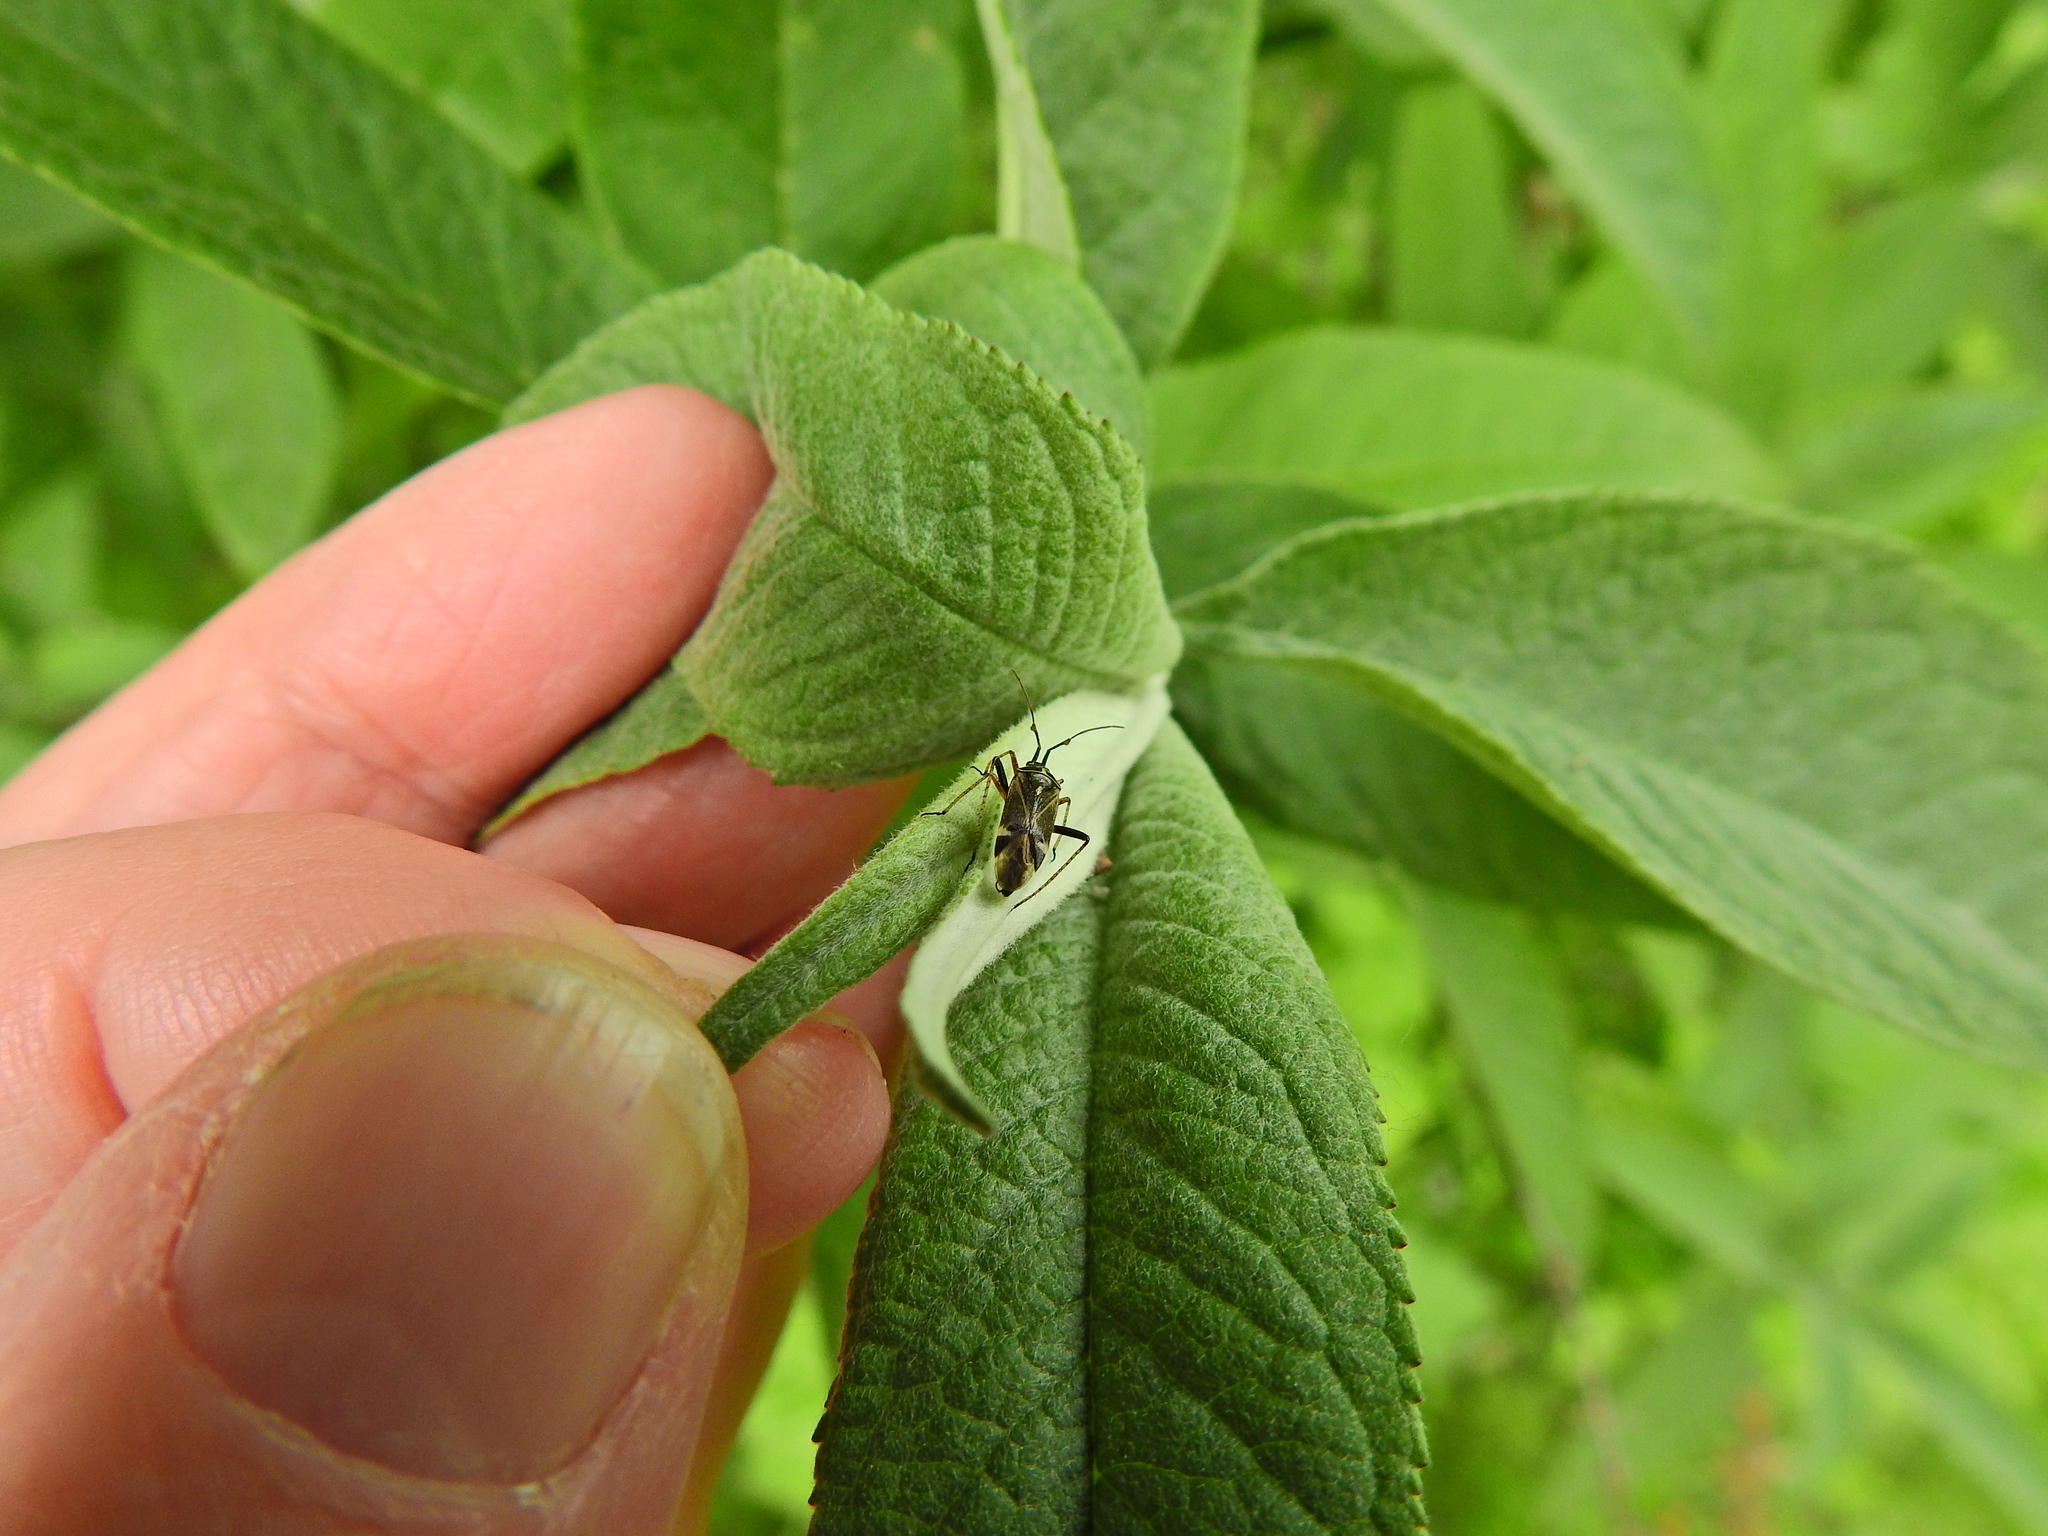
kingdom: Animalia
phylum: Arthropoda
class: Insecta
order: Hemiptera
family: Miridae
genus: Harpocera
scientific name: Harpocera thoracica
